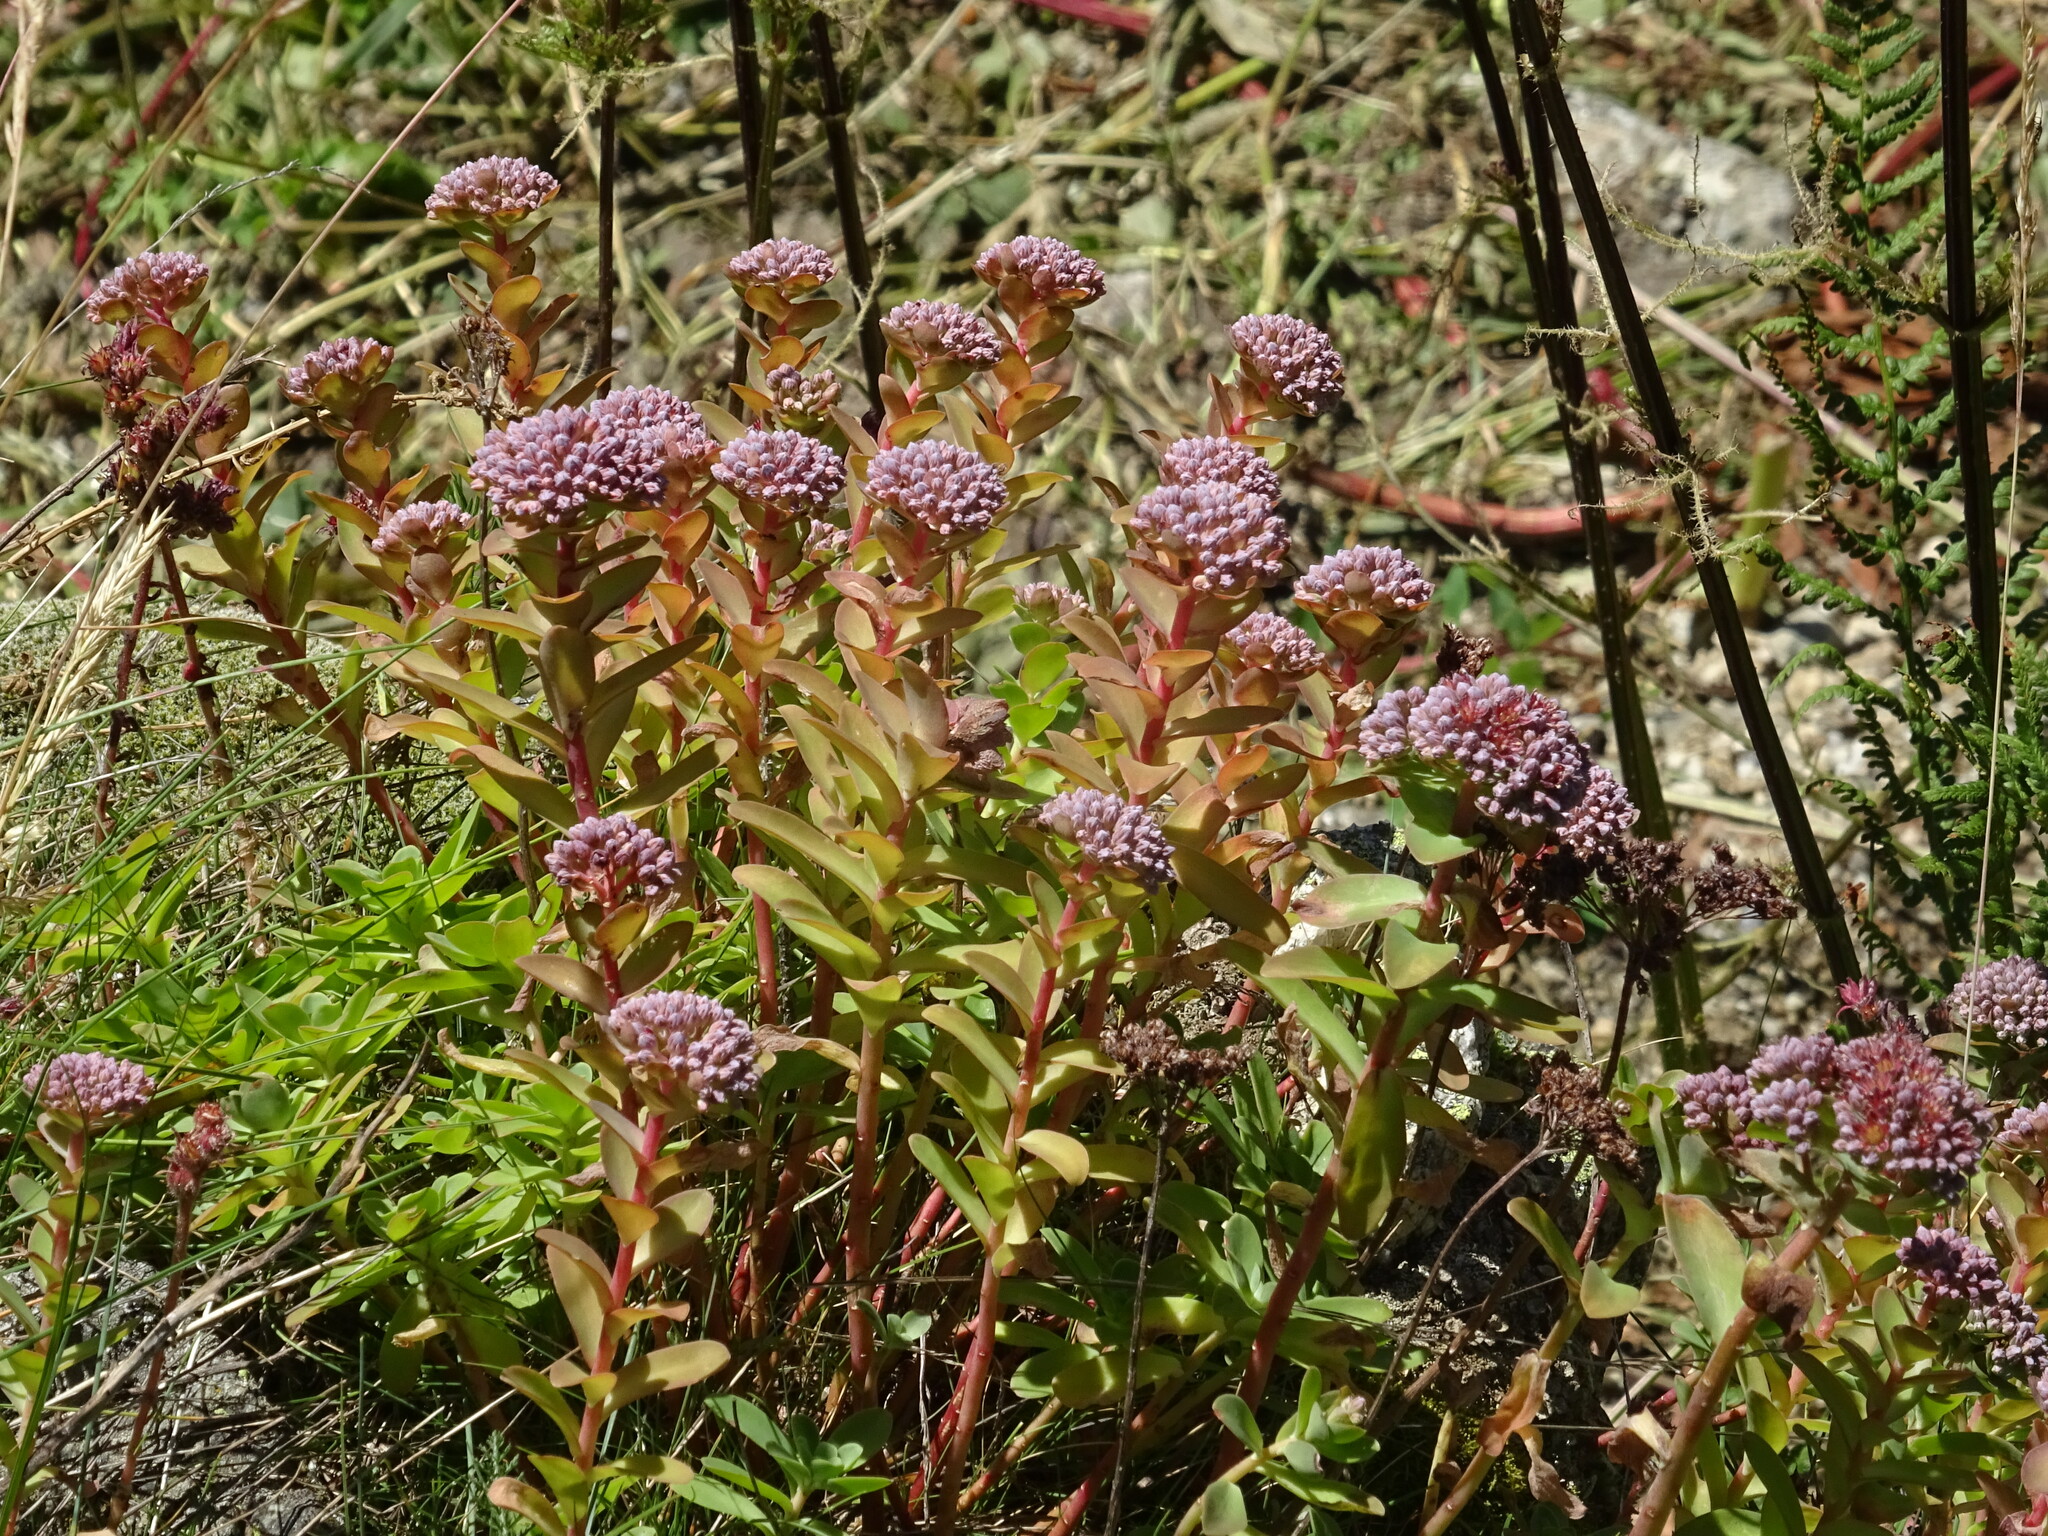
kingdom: Plantae
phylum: Tracheophyta
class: Magnoliopsida
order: Saxifragales
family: Crassulaceae
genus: Hylotelephium
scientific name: Hylotelephium anacampseros
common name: Love-restorer
